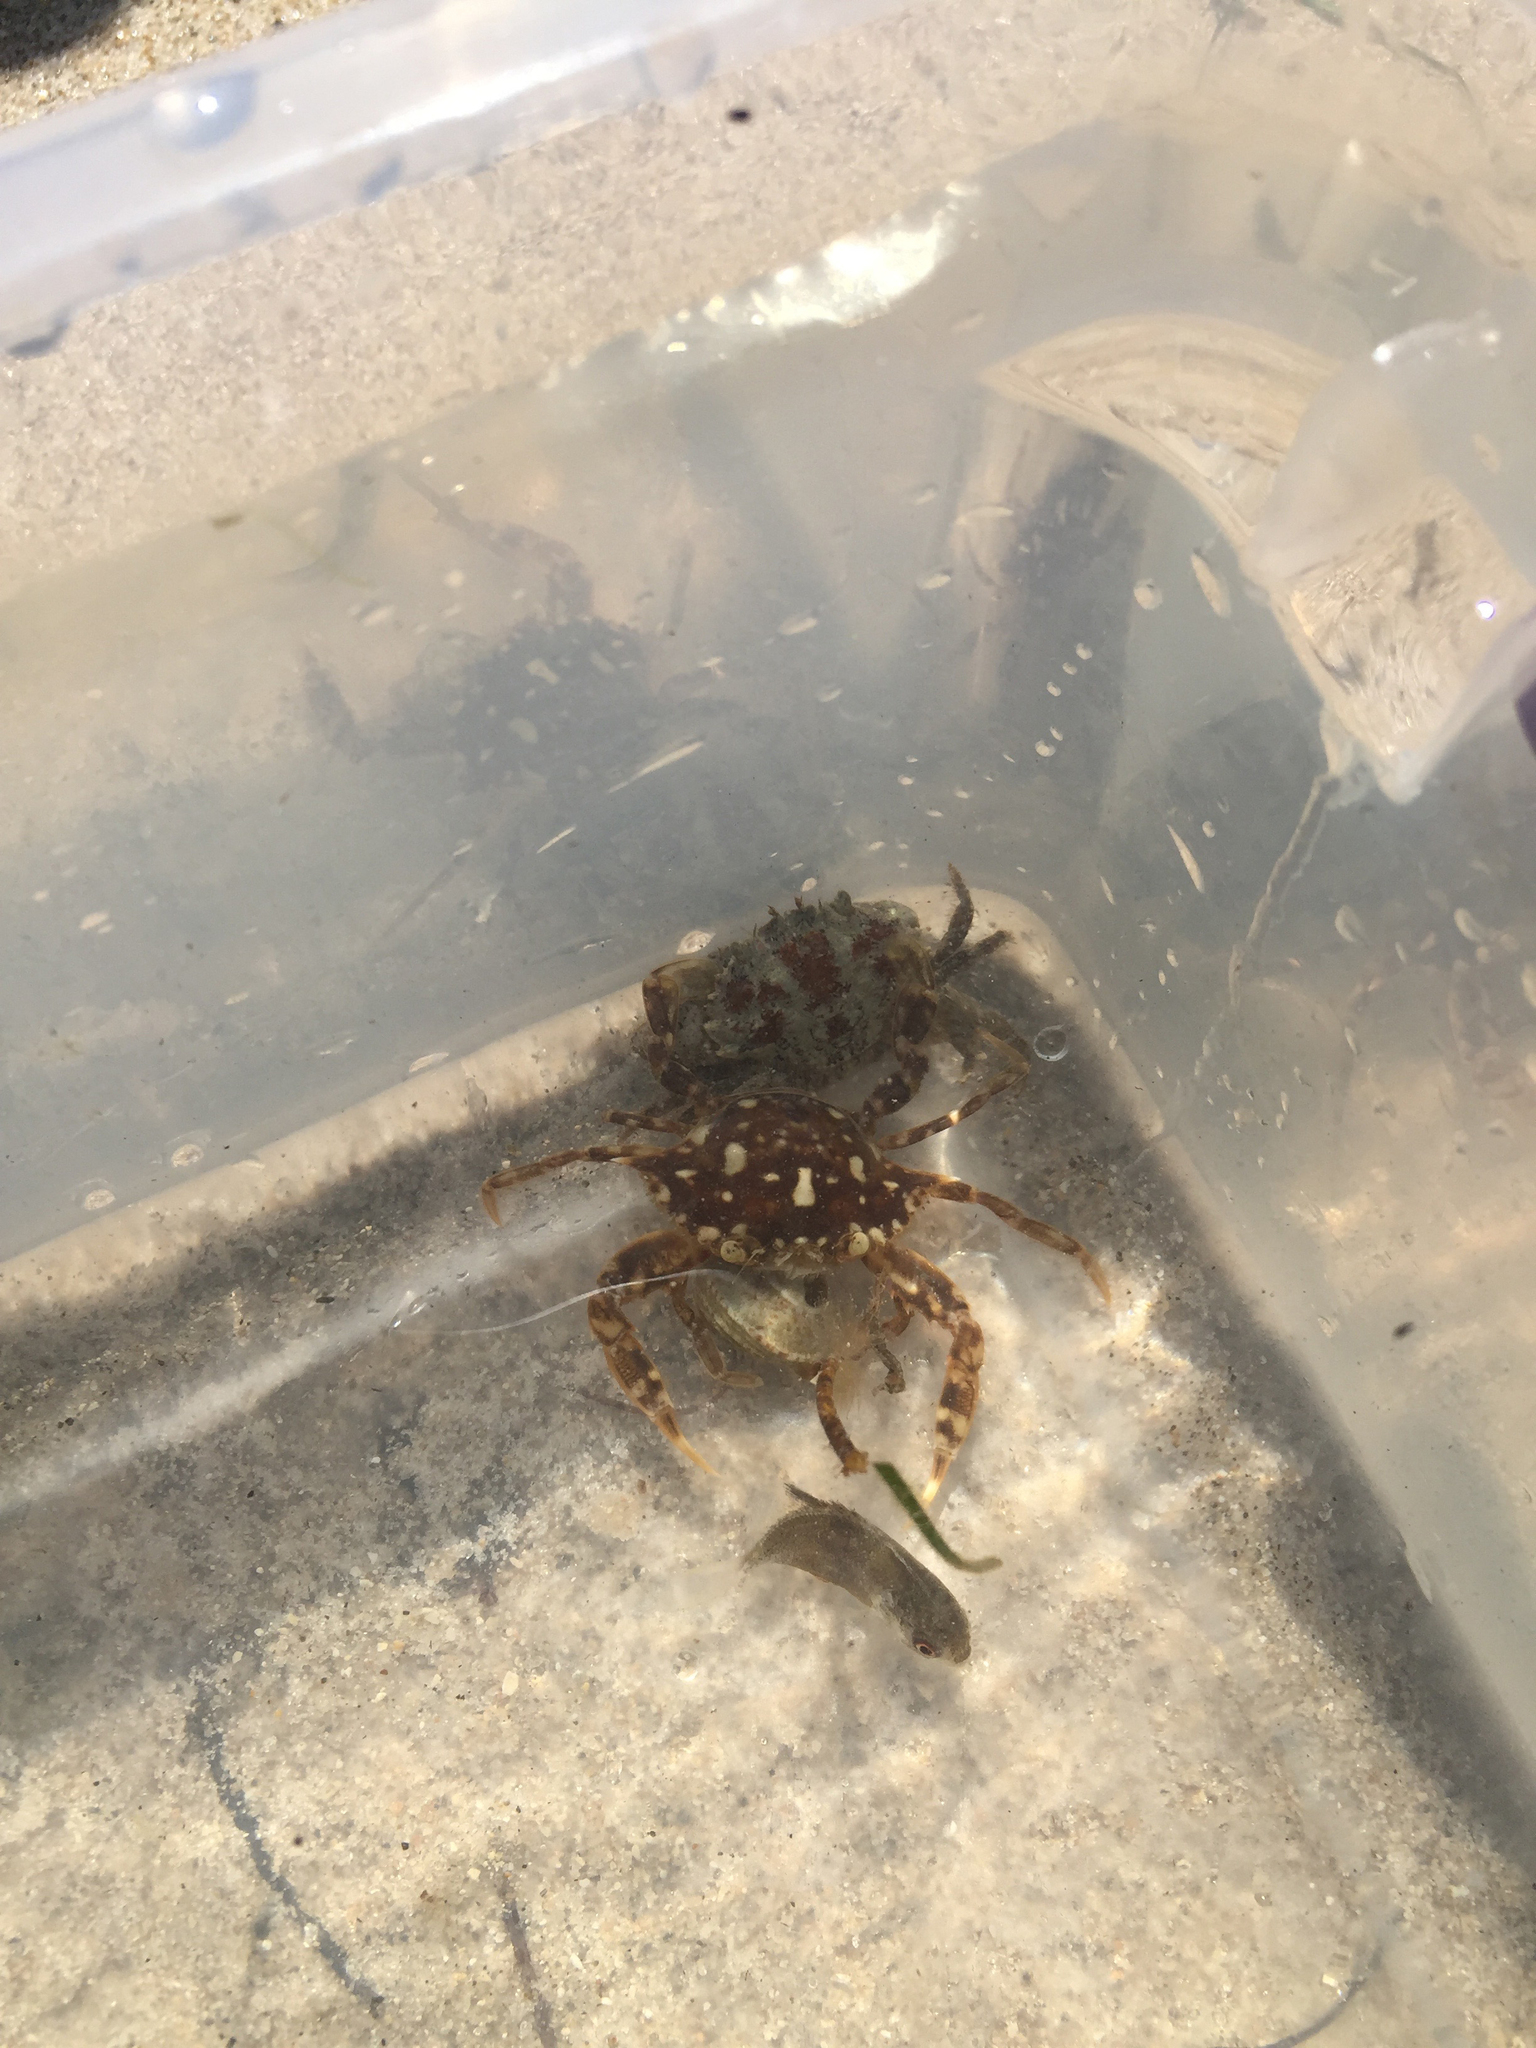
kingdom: Animalia
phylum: Arthropoda
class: Malacostraca
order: Decapoda
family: Portunidae
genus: Portunus
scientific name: Portunus sayi
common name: Sargassum crab
